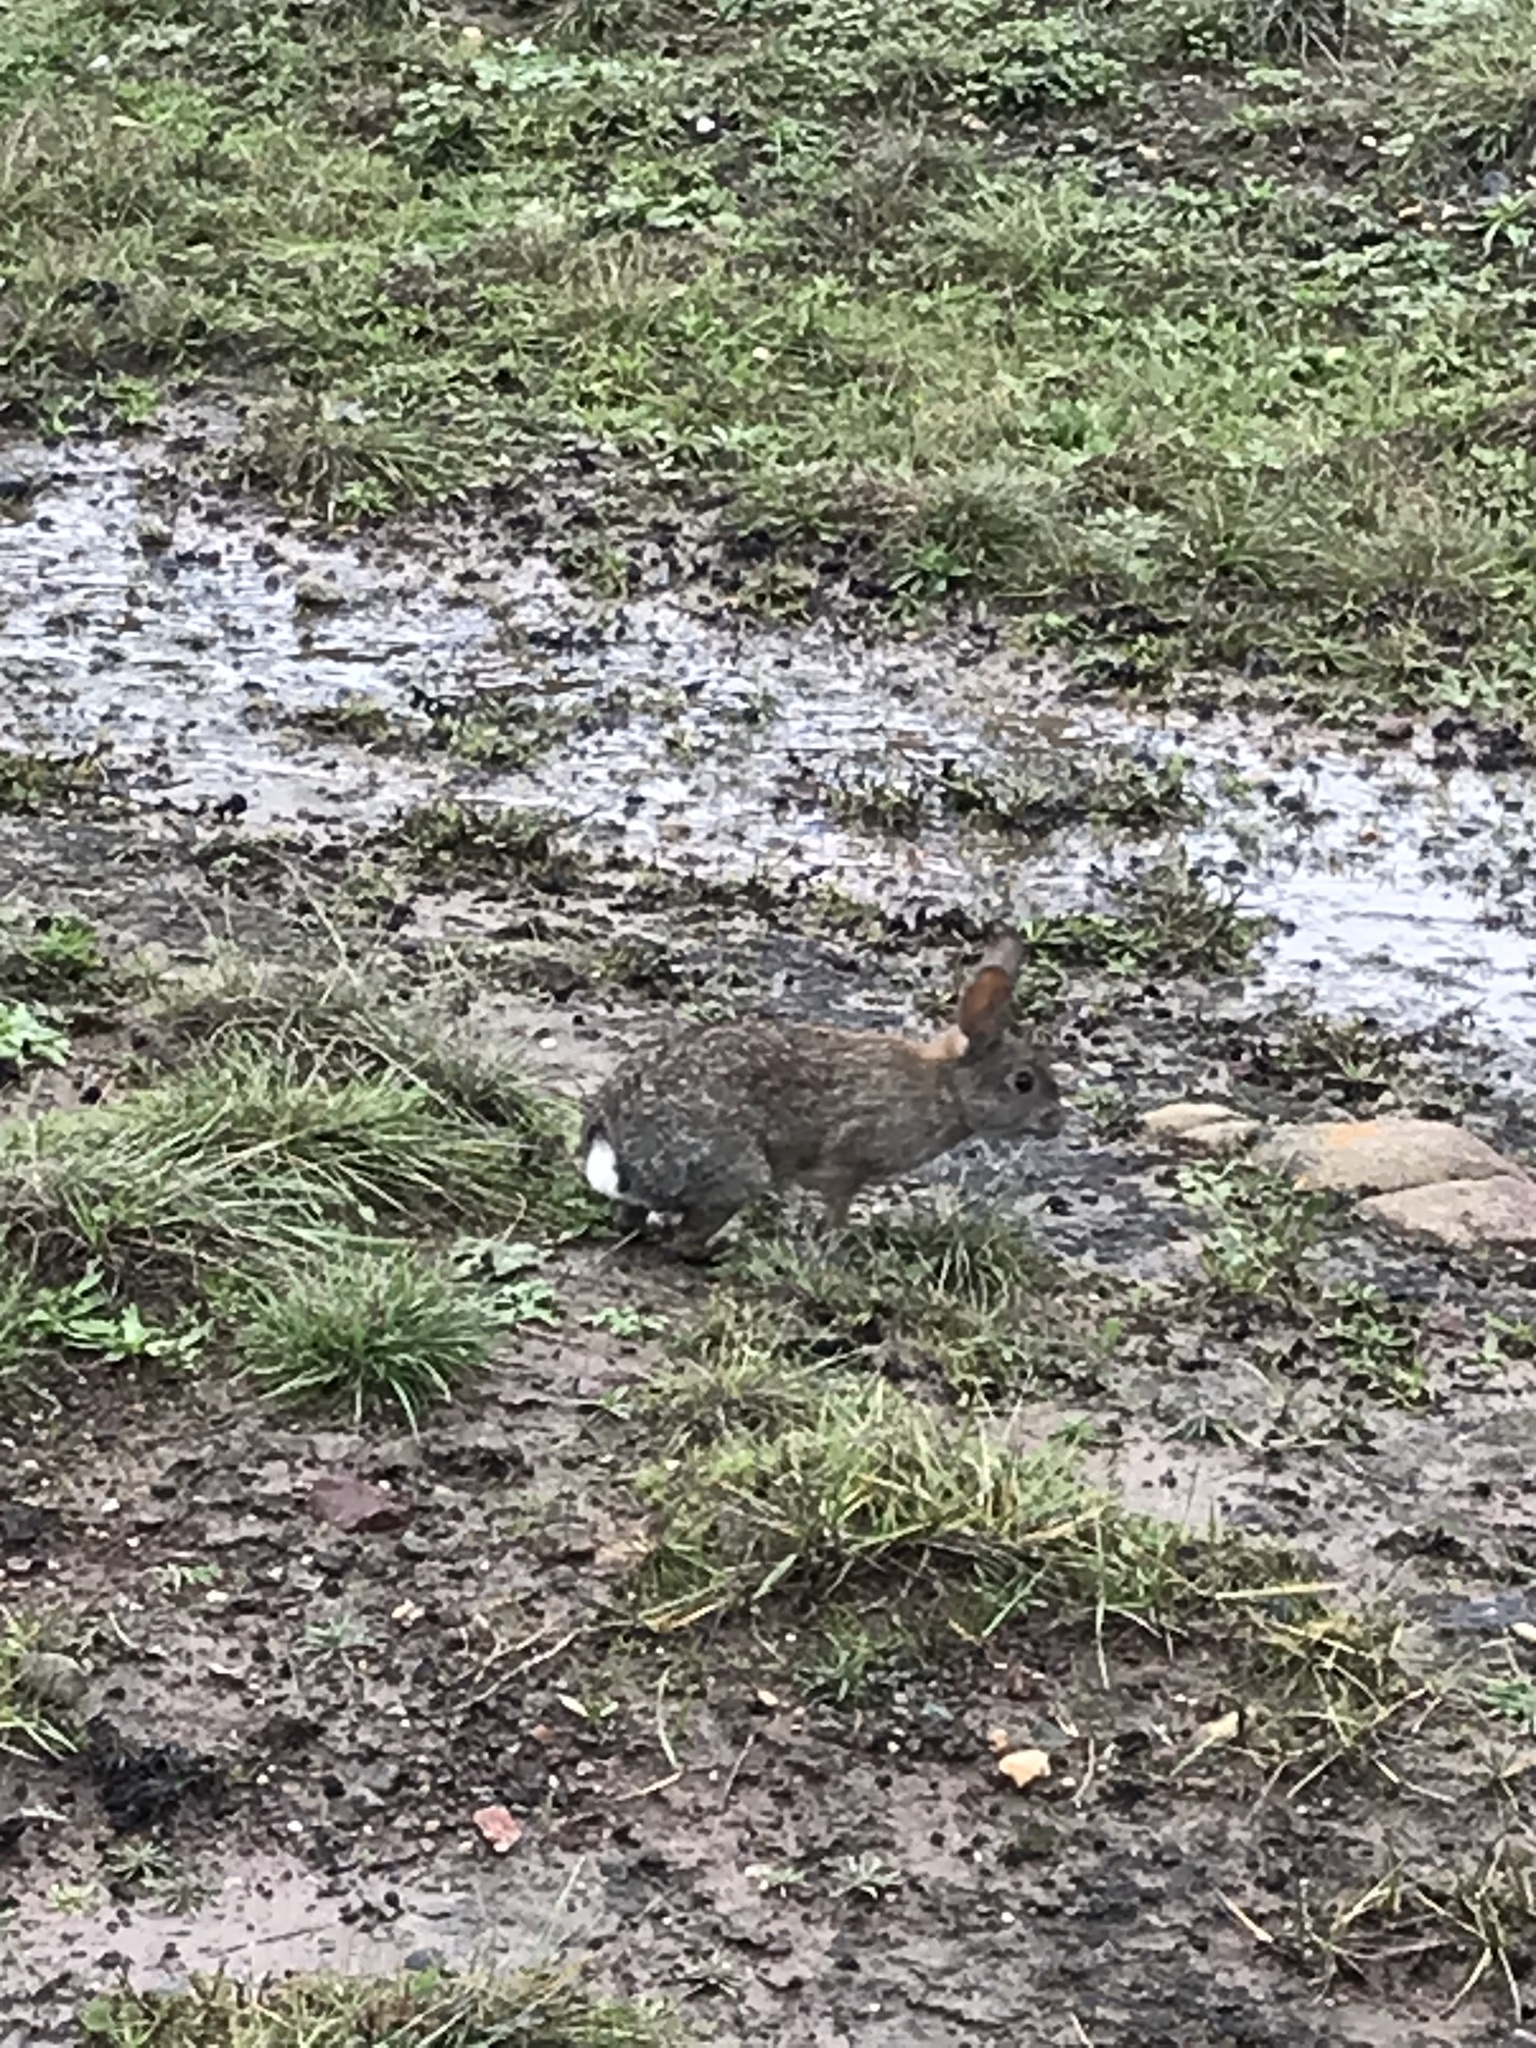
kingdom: Animalia
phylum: Chordata
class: Mammalia
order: Lagomorpha
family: Leporidae
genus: Sylvilagus
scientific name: Sylvilagus bachmani
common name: Brush rabbit
